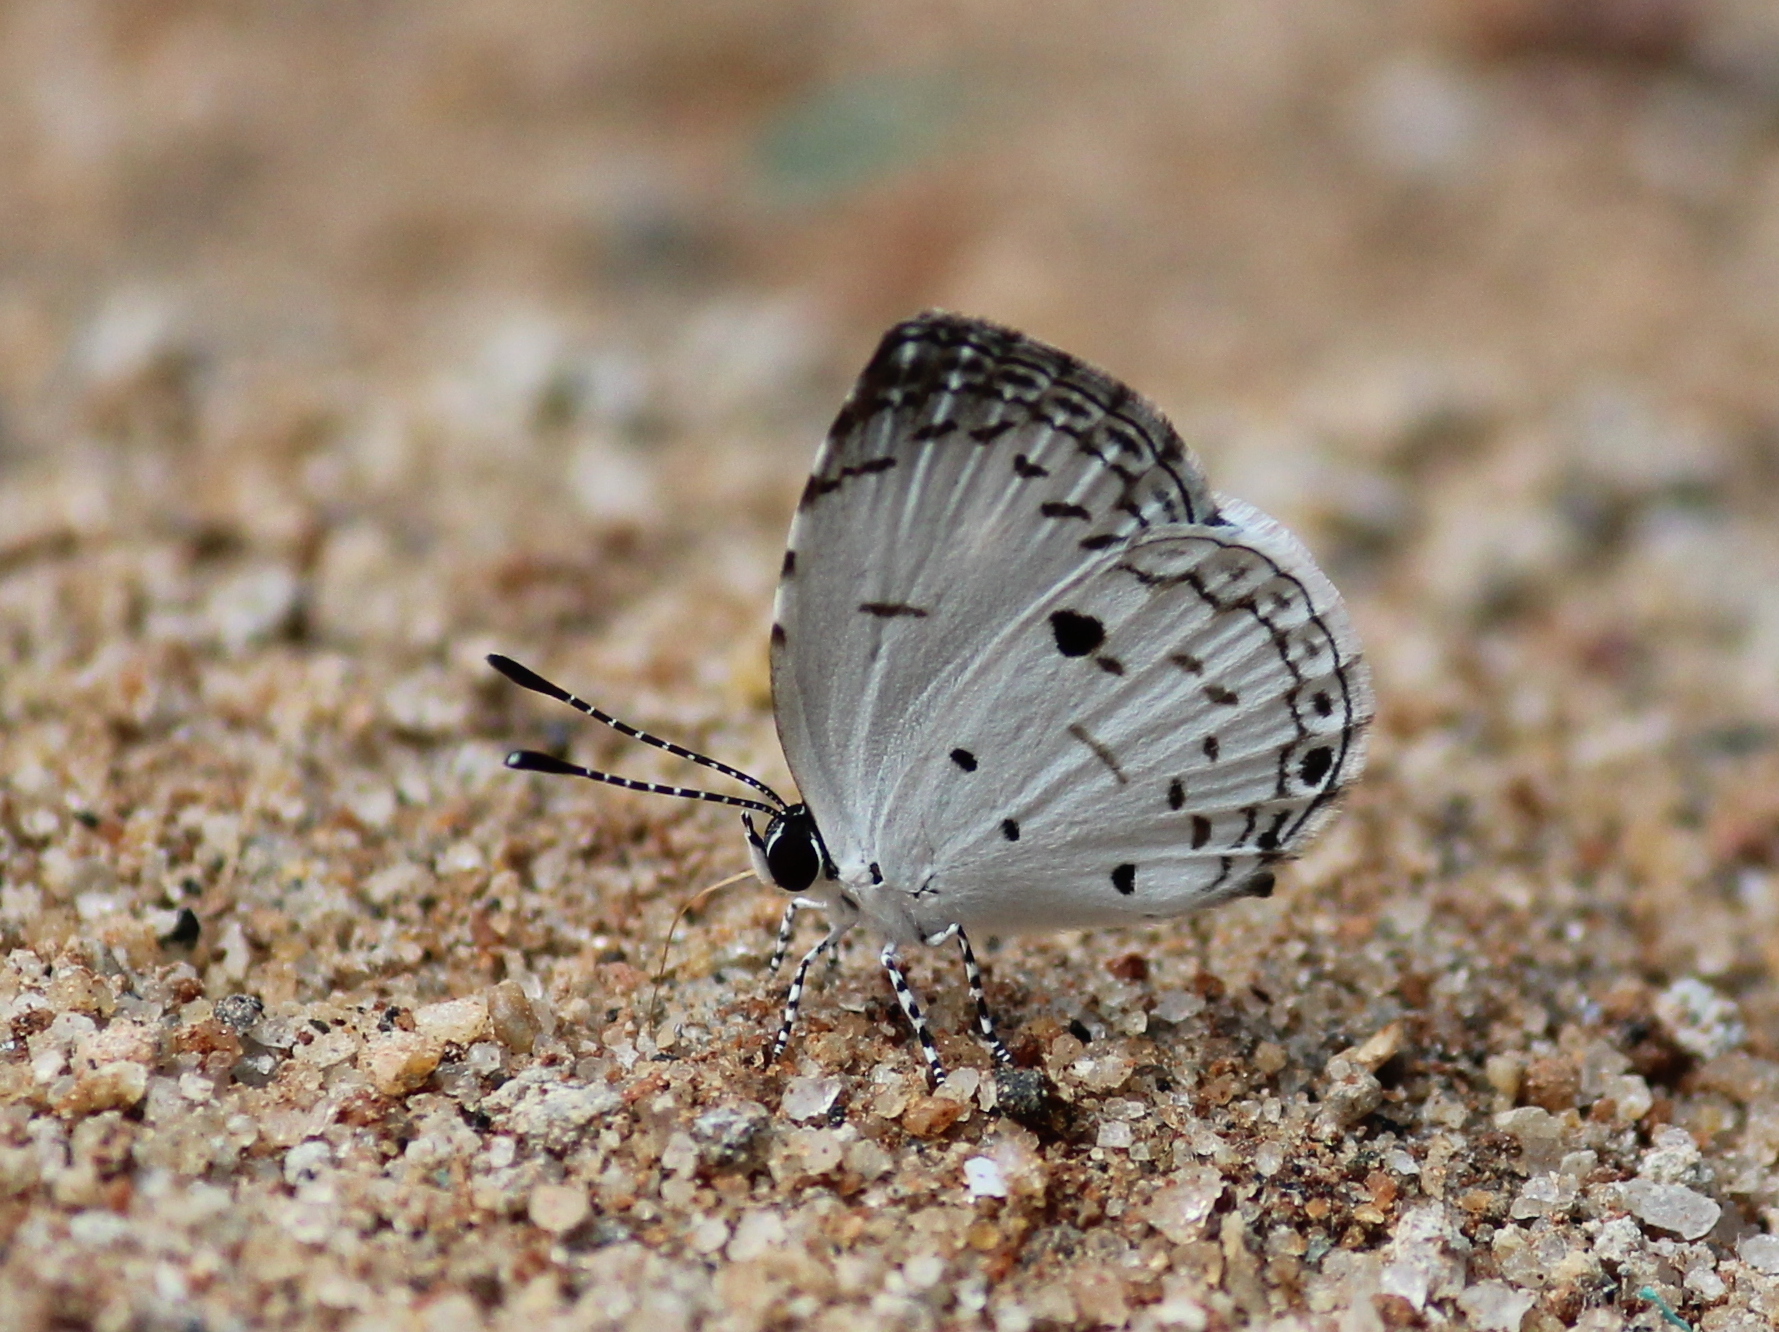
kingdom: Animalia
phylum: Arthropoda
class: Insecta
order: Lepidoptera
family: Lycaenidae
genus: Neopithecops
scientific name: Neopithecops zalmora
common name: Quaker
